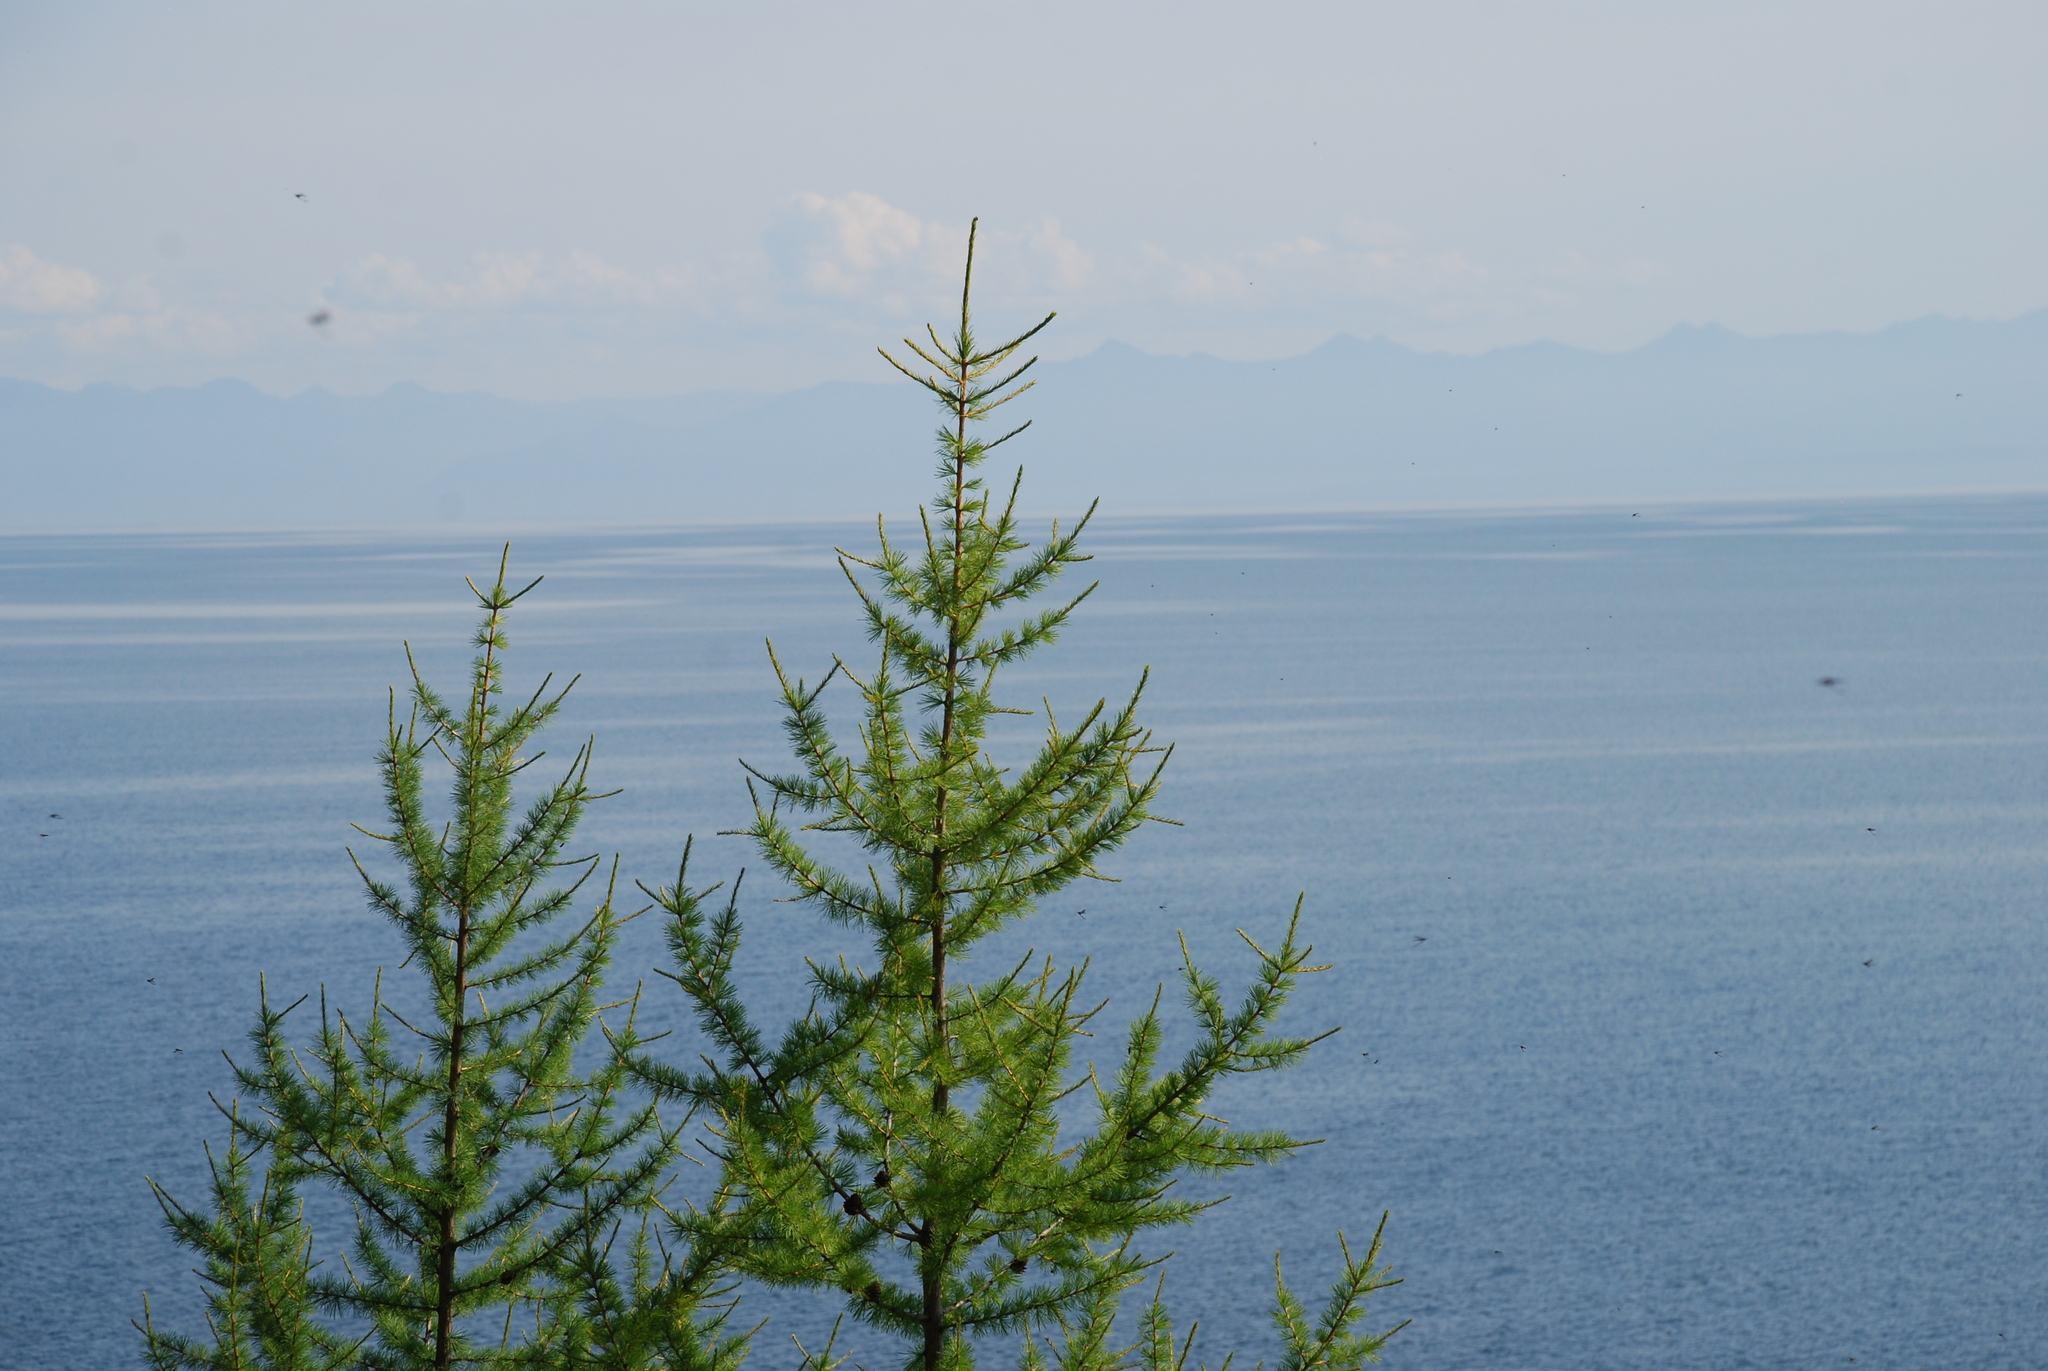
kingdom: Plantae
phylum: Tracheophyta
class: Pinopsida
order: Pinales
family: Pinaceae
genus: Larix
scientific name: Larix sibirica
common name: Siberian larch
